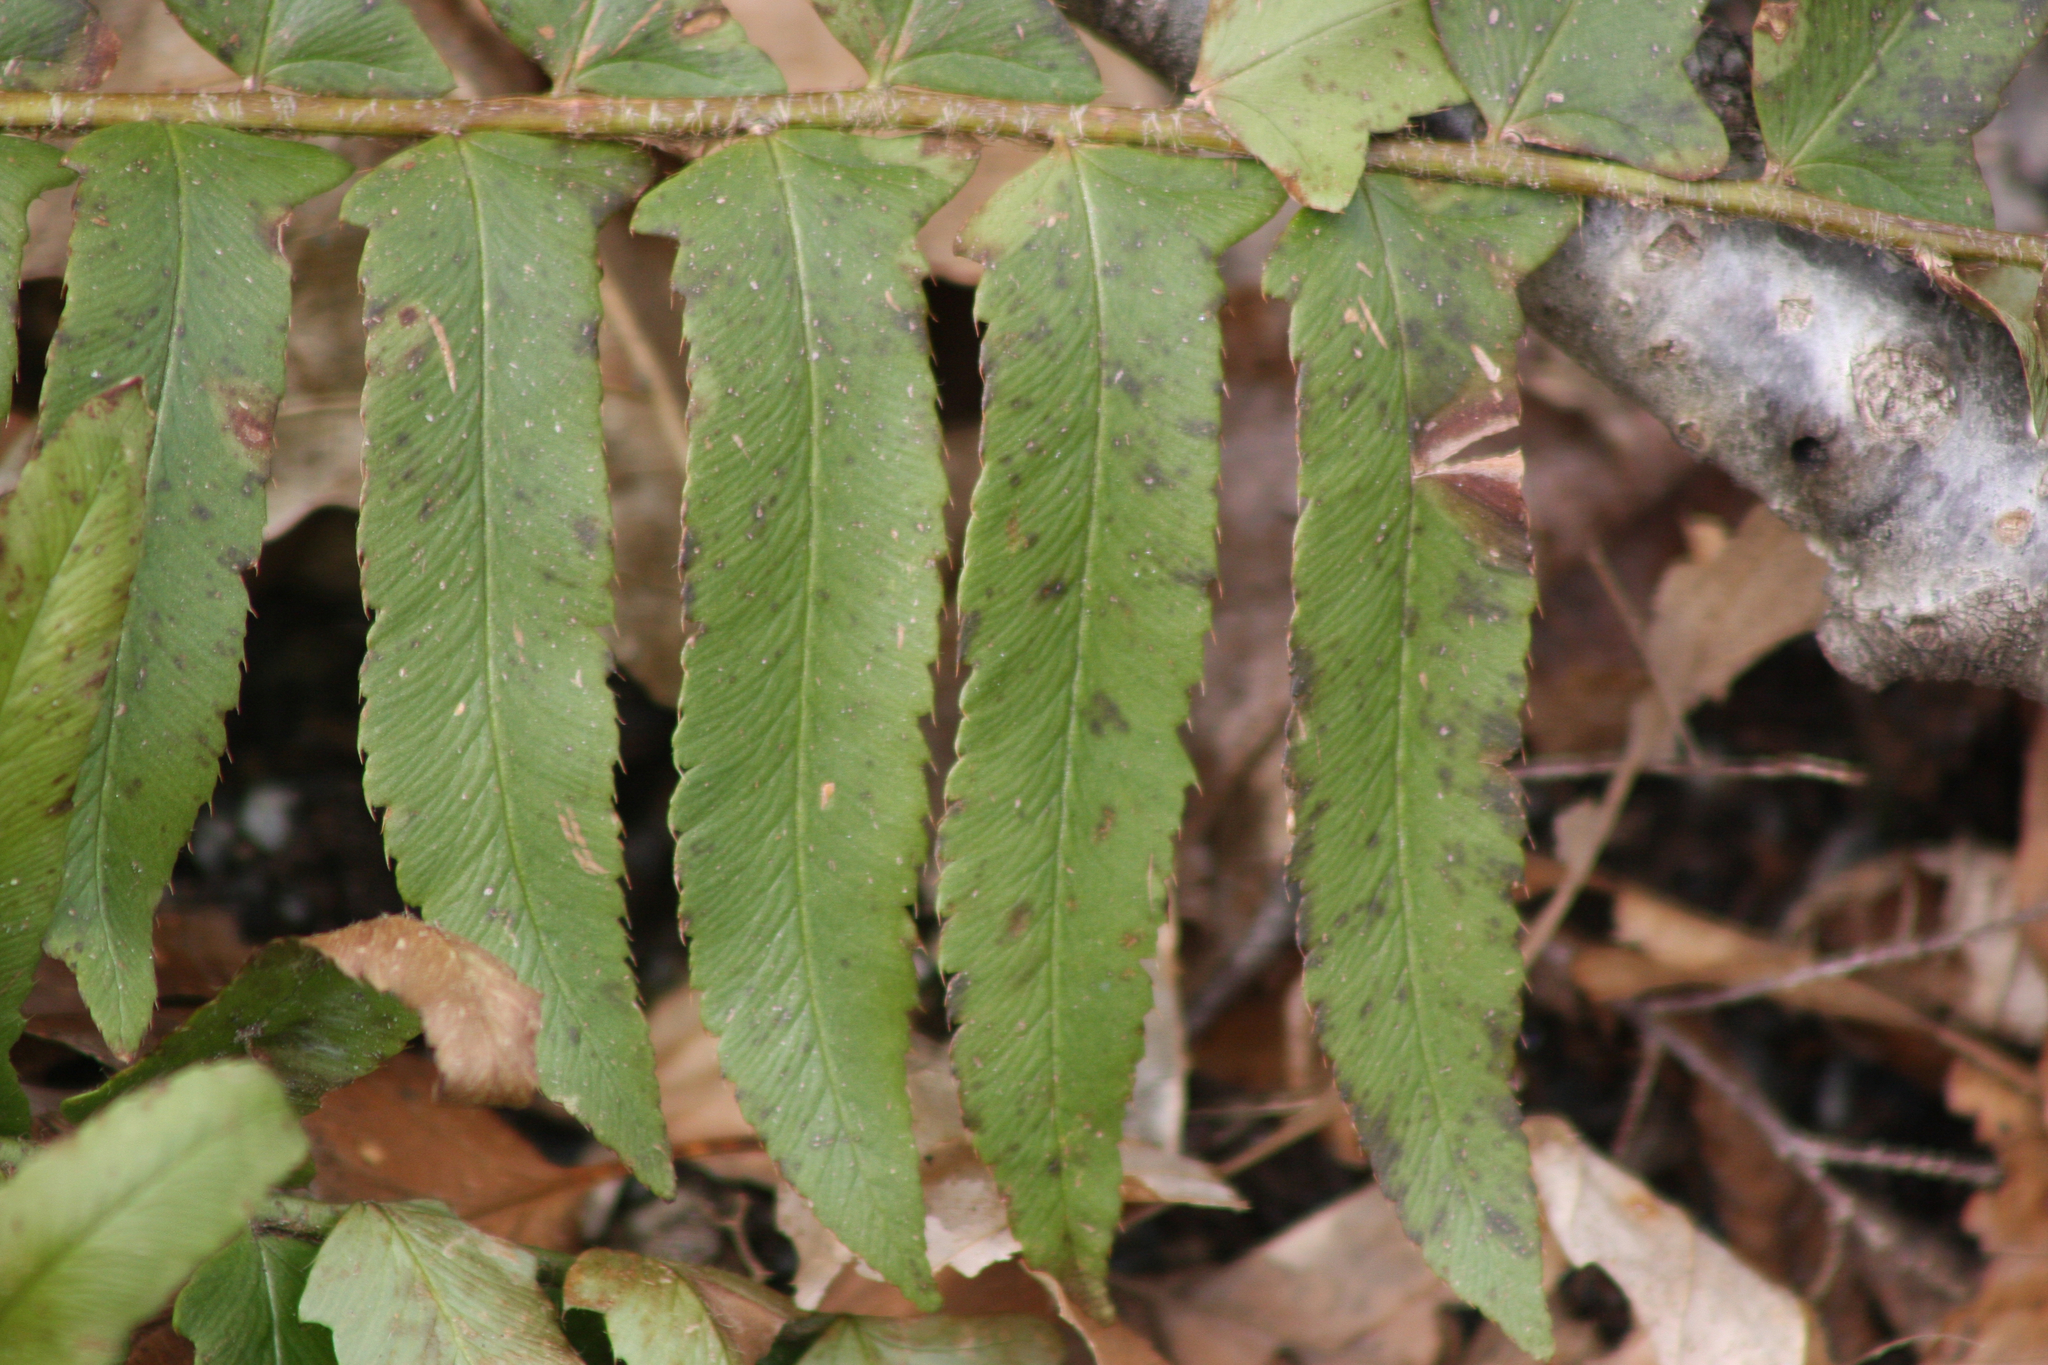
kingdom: Plantae
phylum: Tracheophyta
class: Polypodiopsida
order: Polypodiales
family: Dryopteridaceae
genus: Polystichum
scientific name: Polystichum acrostichoides
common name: Christmas fern
